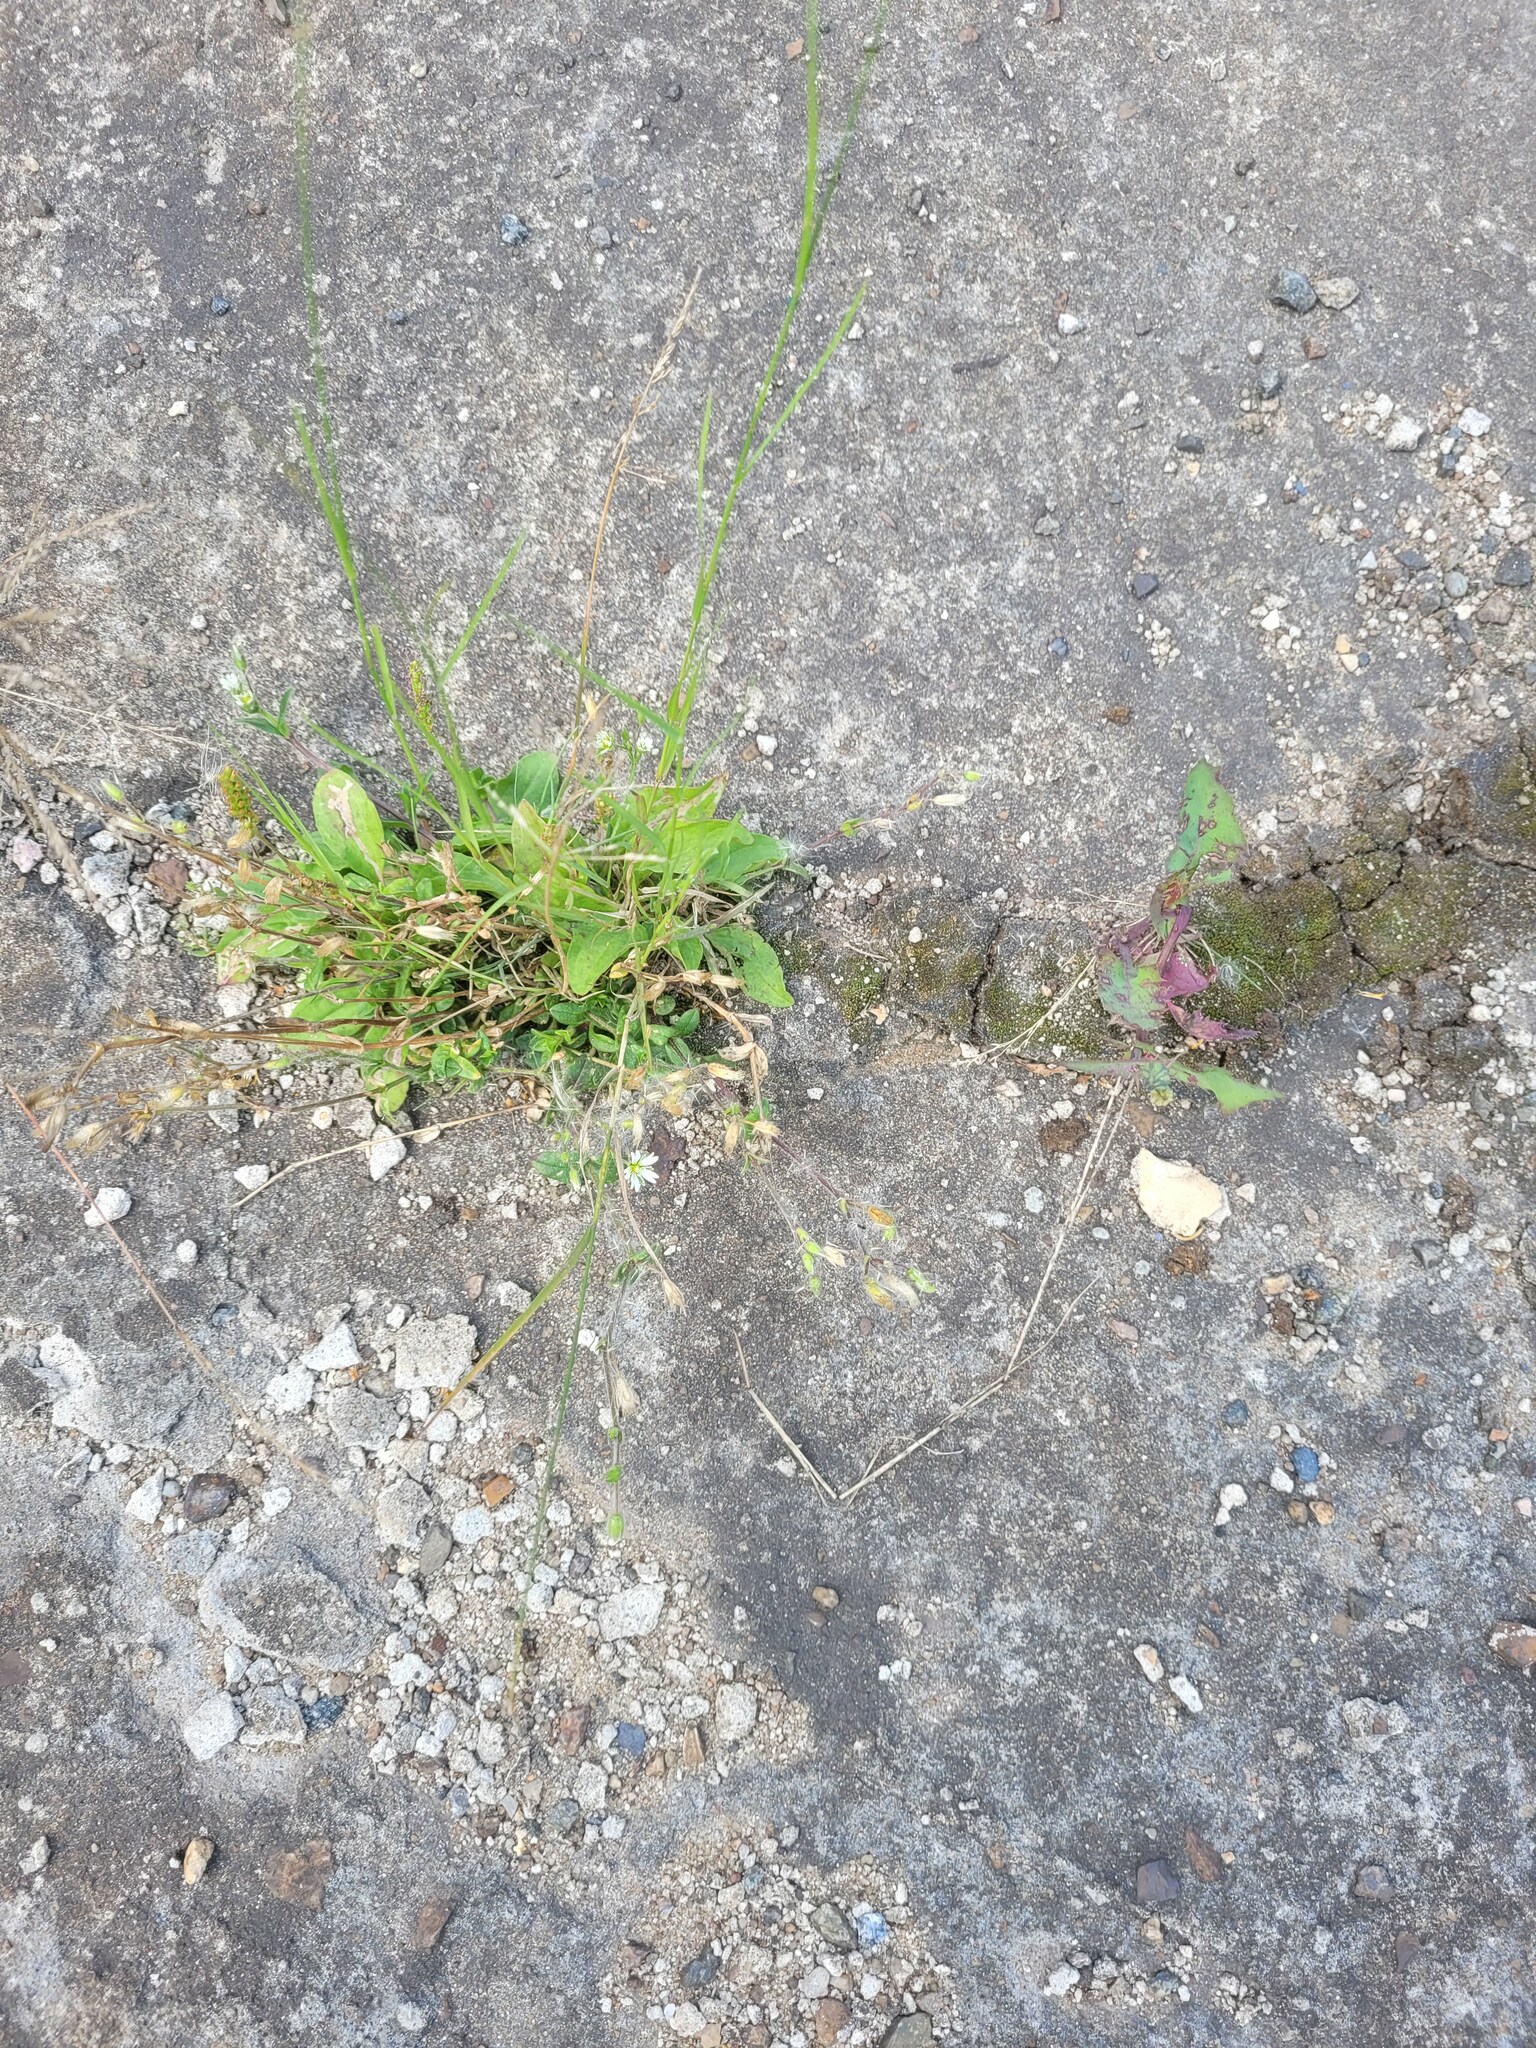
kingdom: Plantae
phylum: Tracheophyta
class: Magnoliopsida
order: Caryophyllales
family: Caryophyllaceae
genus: Cerastium
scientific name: Cerastium holosteoides
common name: Big chickweed
